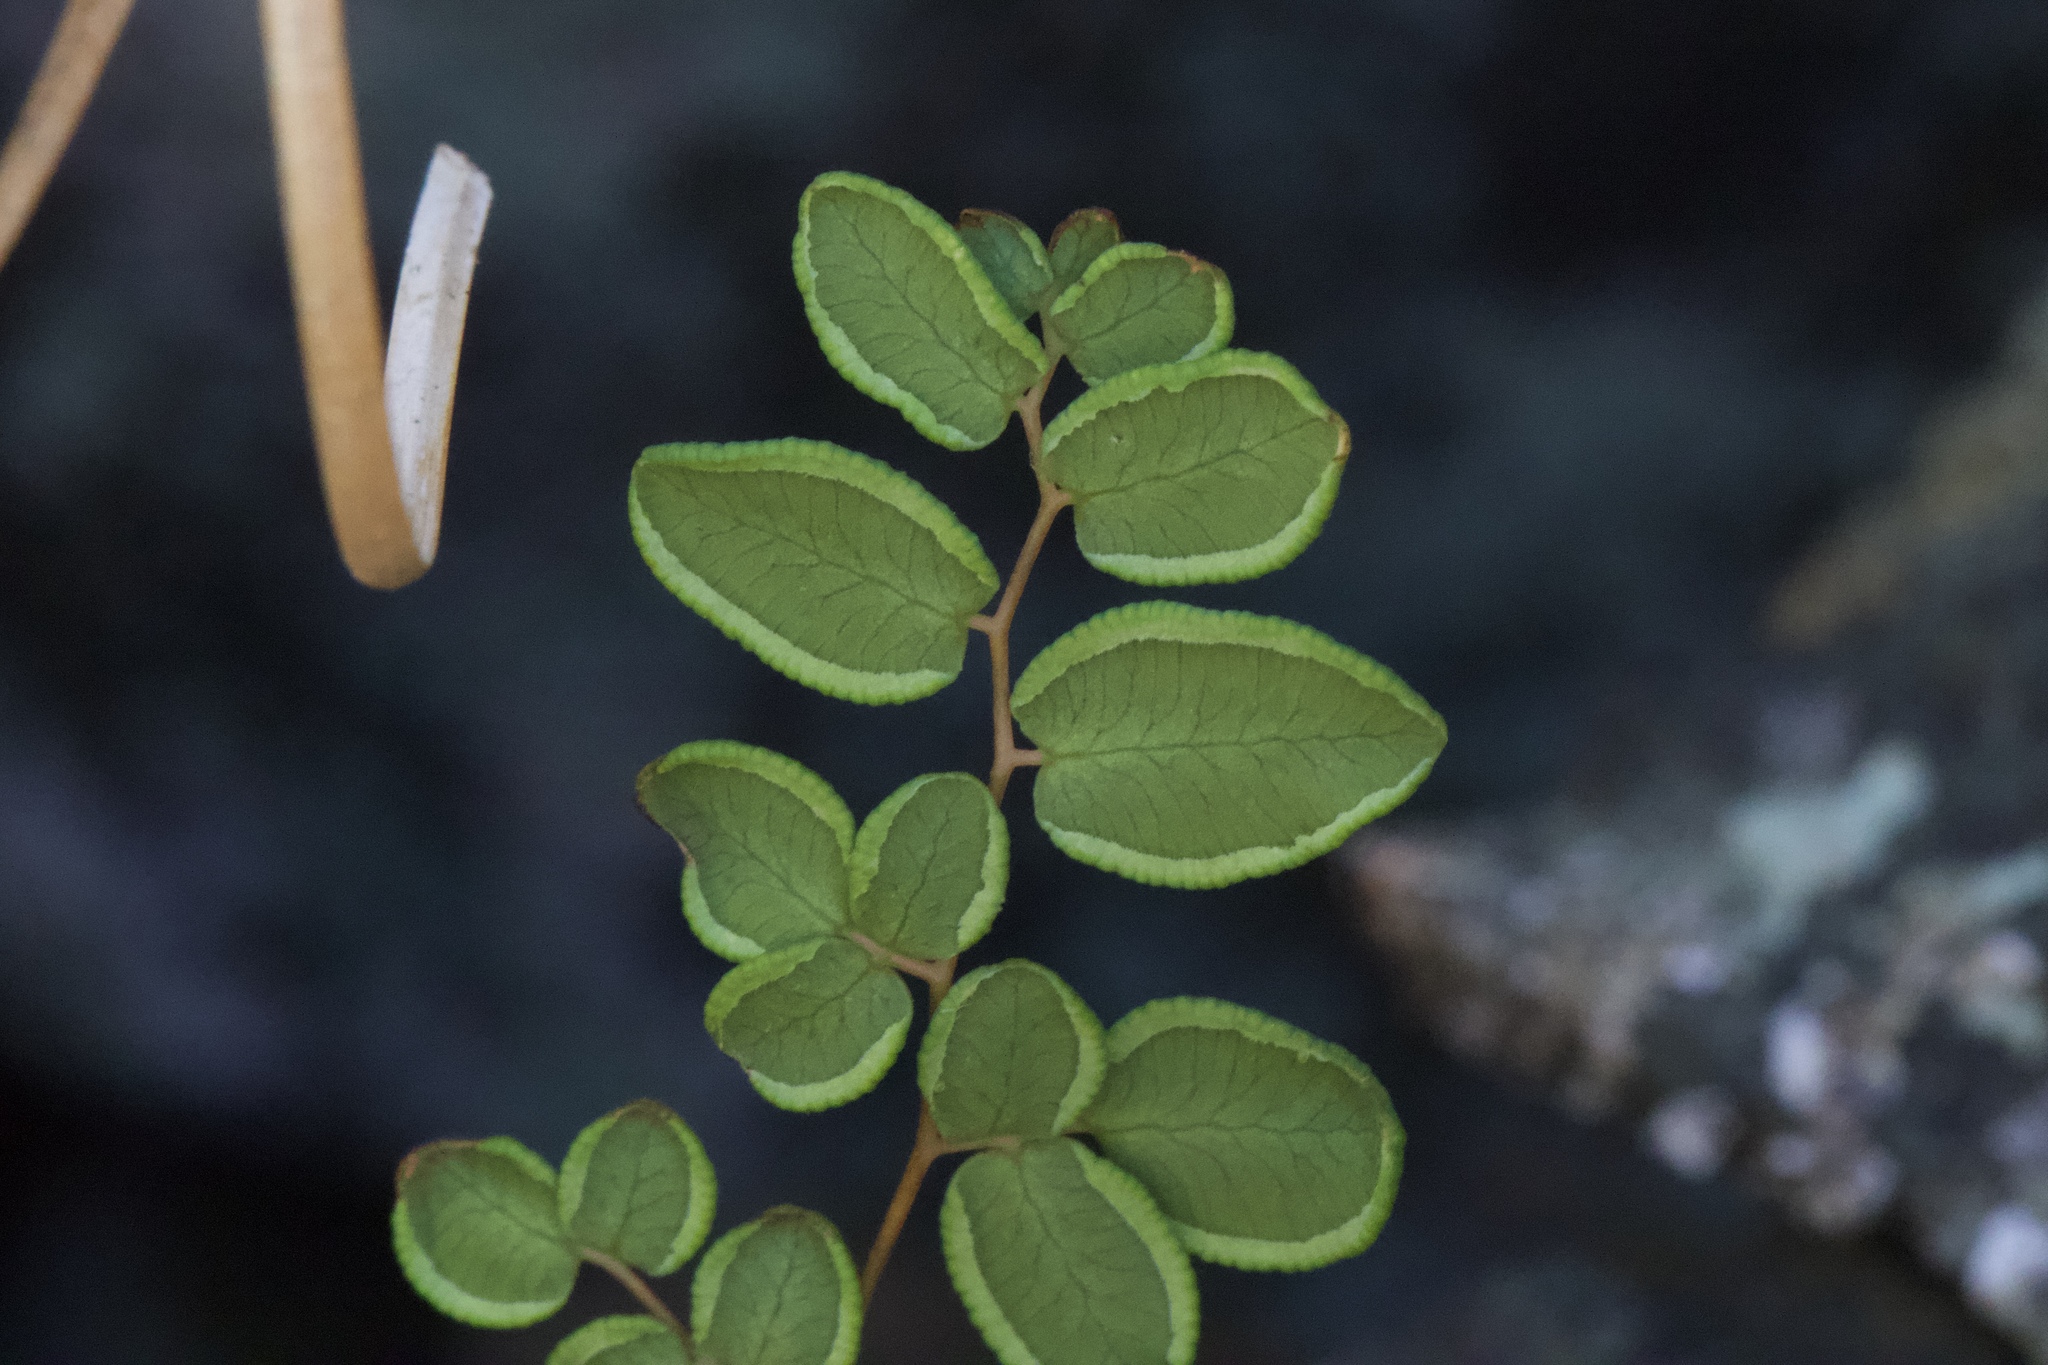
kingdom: Plantae
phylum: Tracheophyta
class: Polypodiopsida
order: Polypodiales
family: Pteridaceae
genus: Pellaea
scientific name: Pellaea andromedifolia
